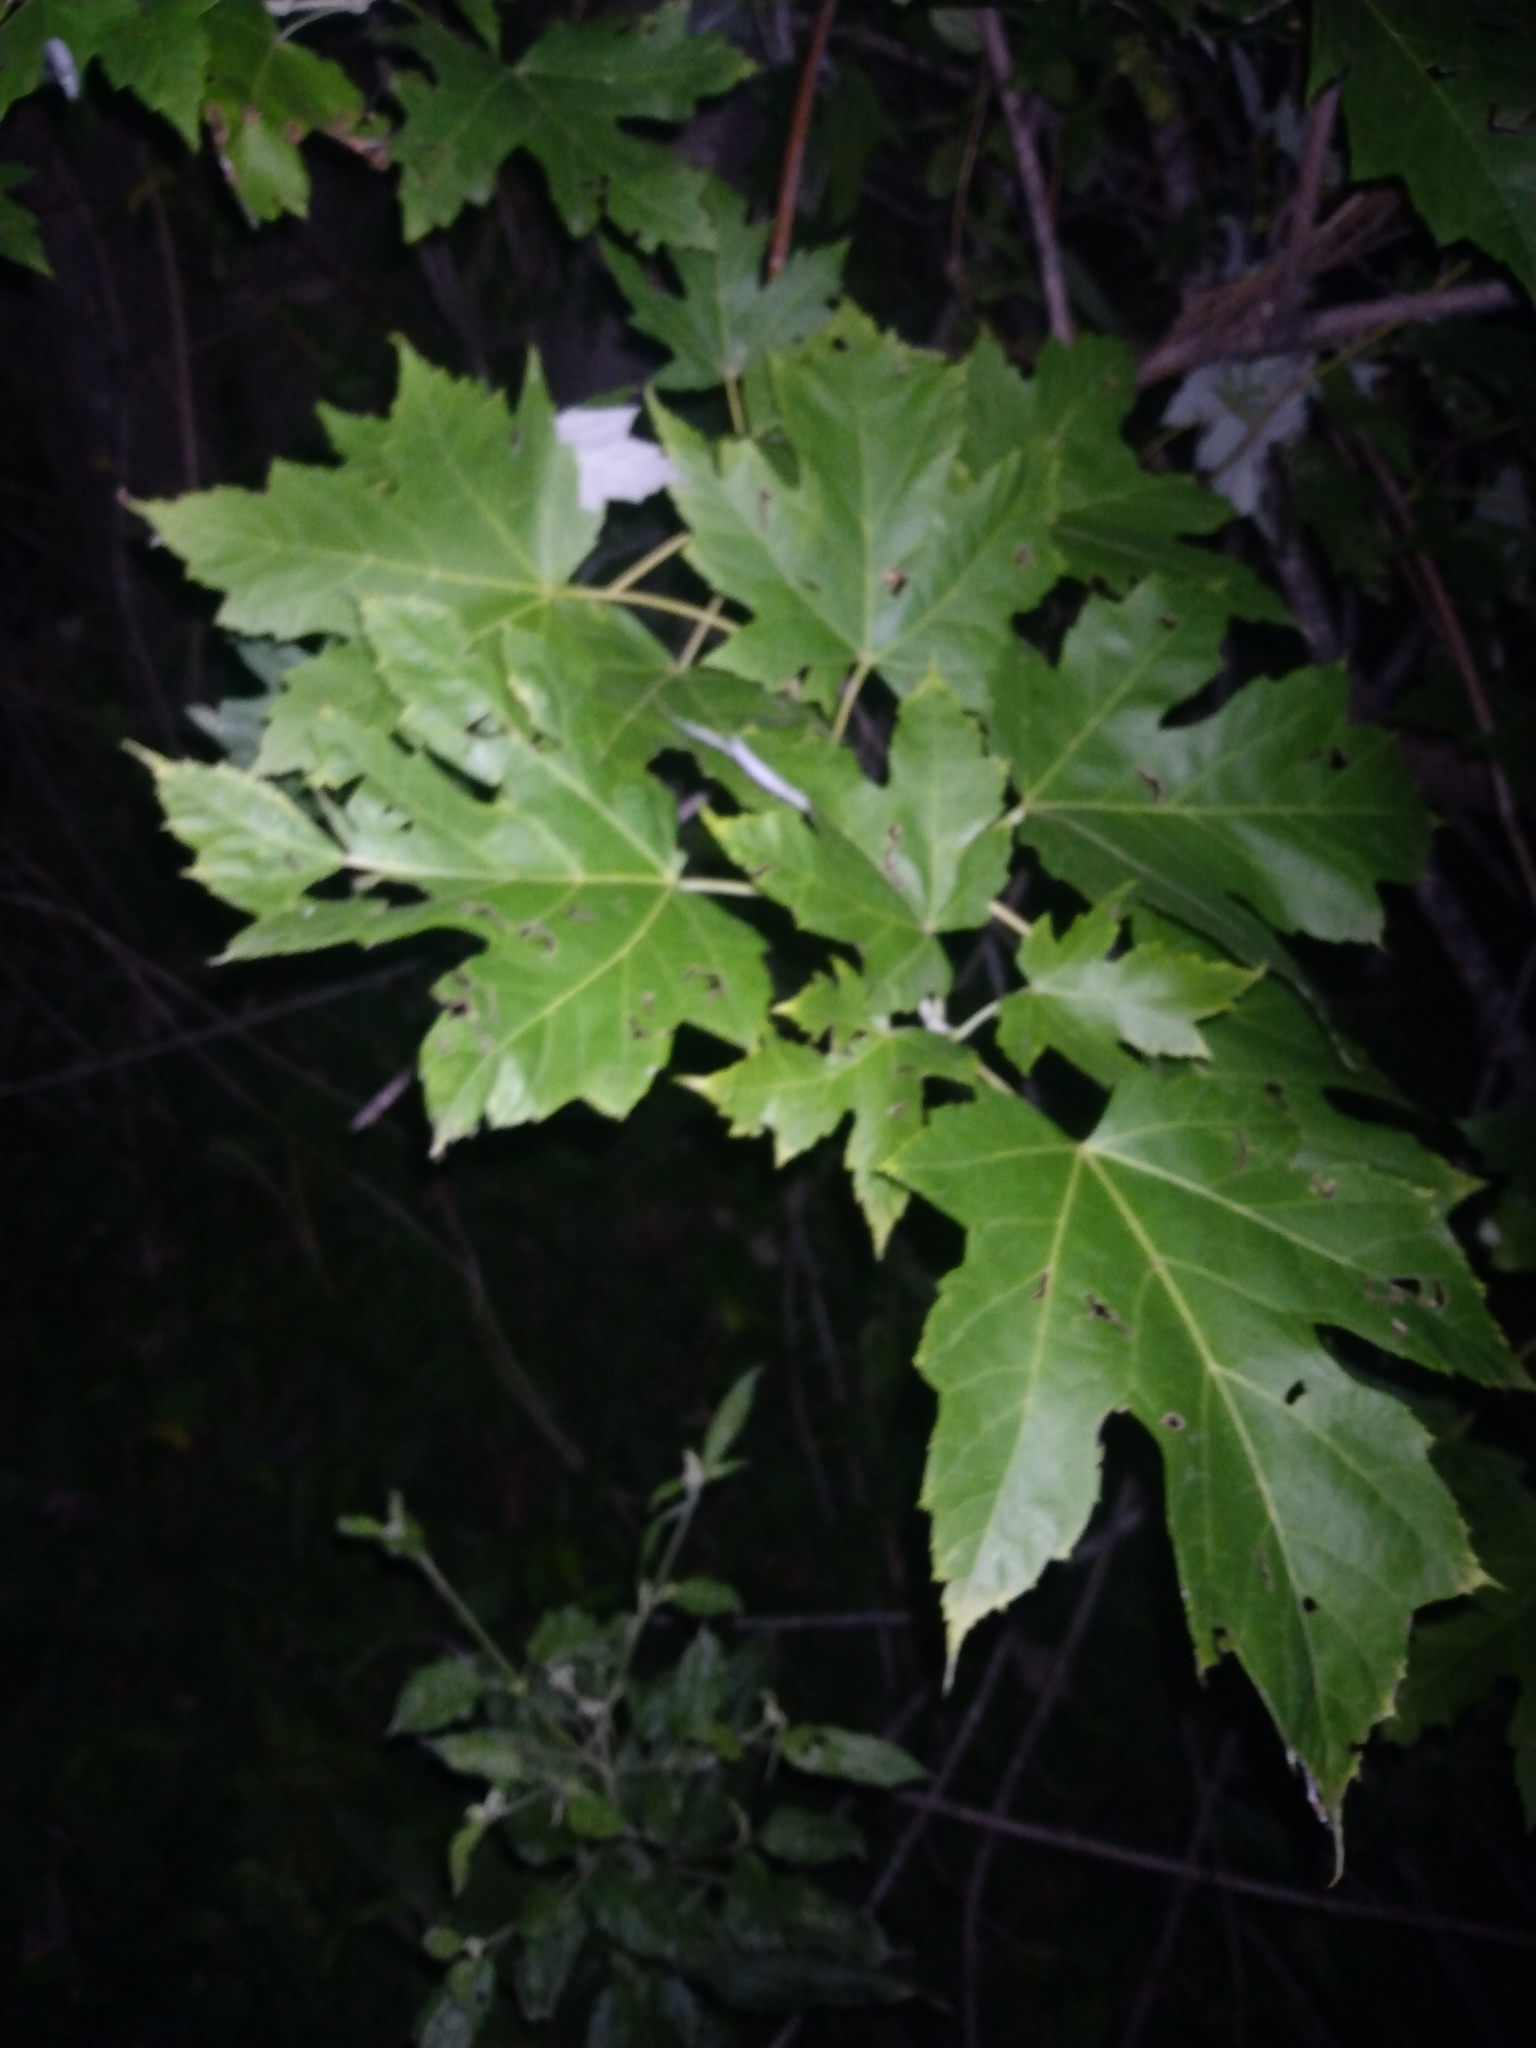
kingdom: Plantae
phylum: Tracheophyta
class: Magnoliopsida
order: Sapindales
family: Sapindaceae
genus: Acer
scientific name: Acer saccharinum
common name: Silver maple
